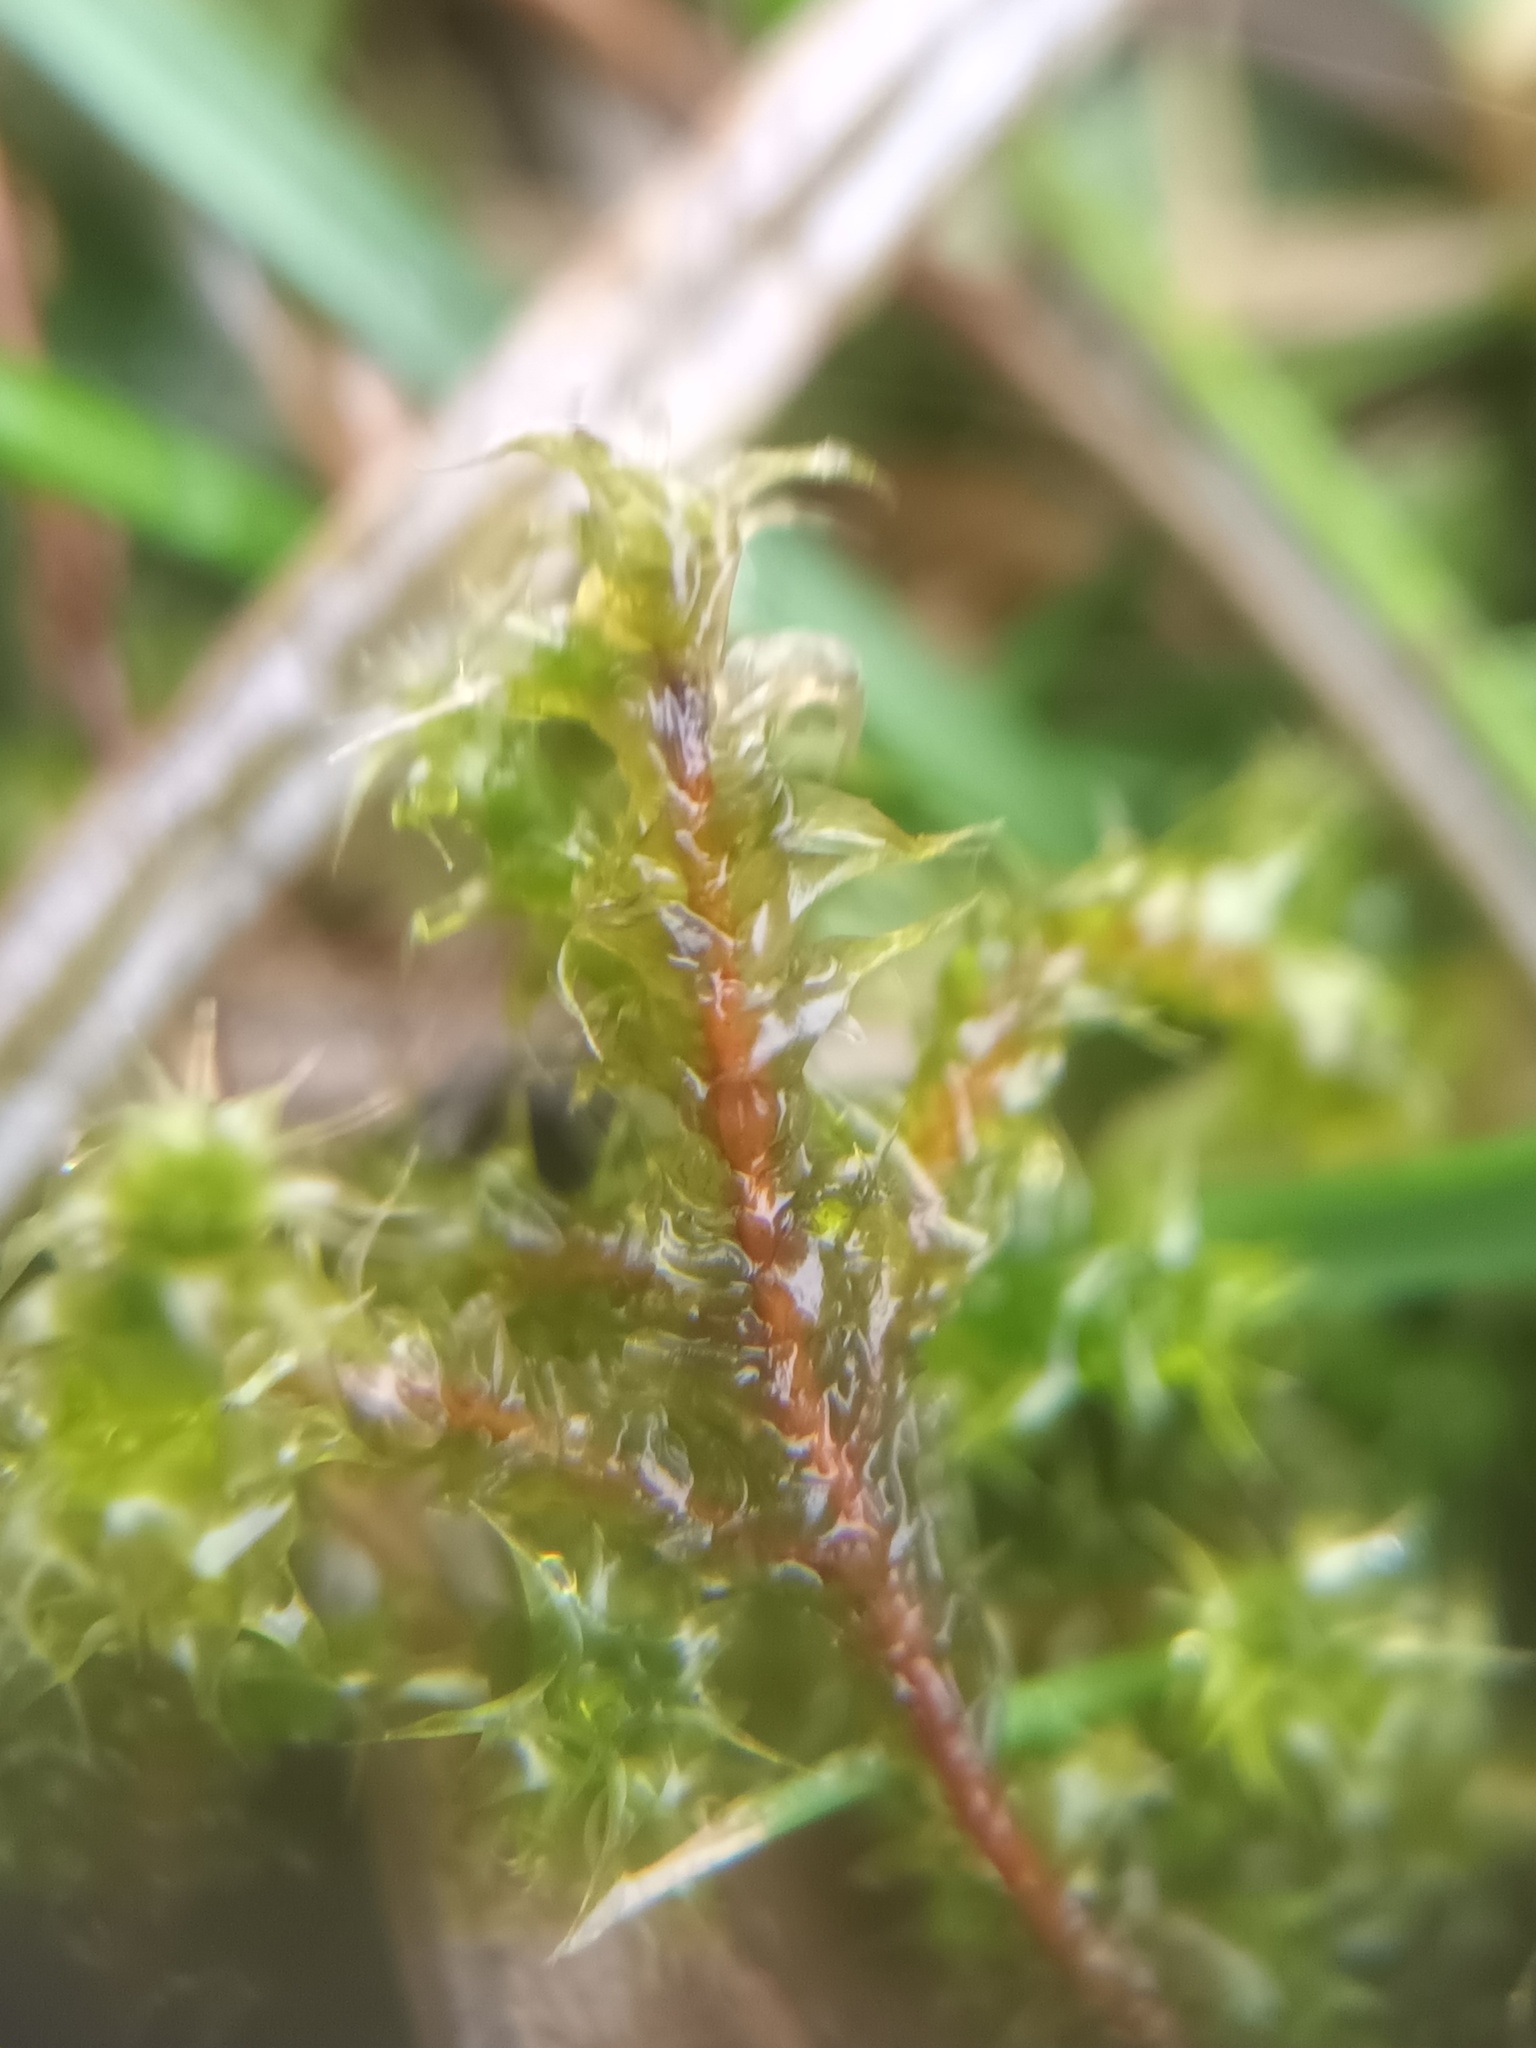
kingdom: Plantae
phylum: Bryophyta
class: Bryopsida
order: Hypnales
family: Hylocomiaceae
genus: Rhytidiadelphus
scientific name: Rhytidiadelphus squarrosus
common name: Springy turf-moss
